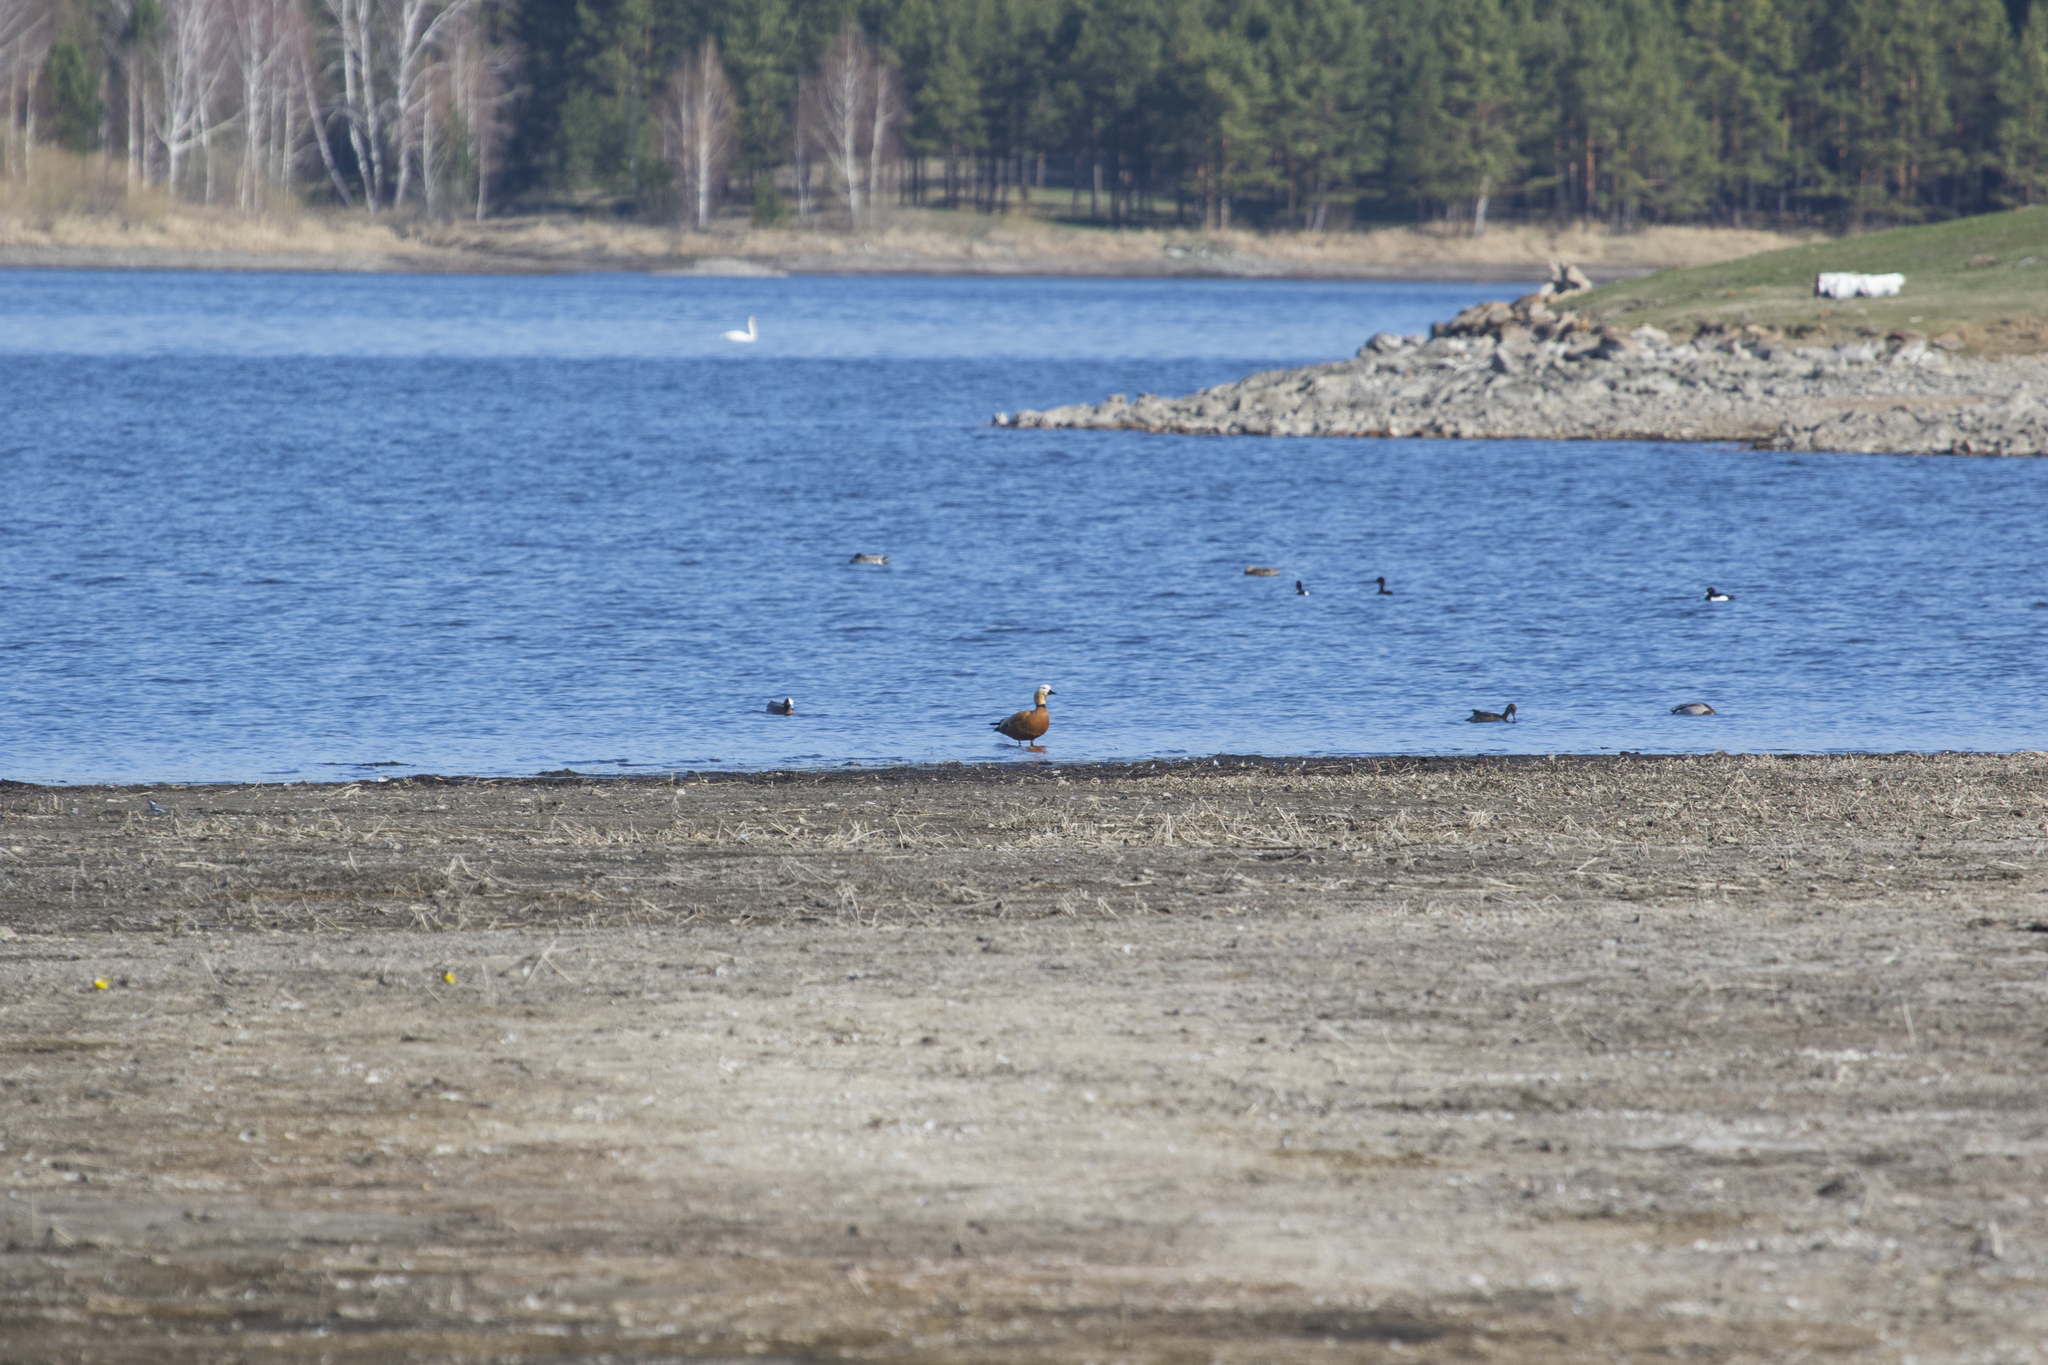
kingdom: Animalia
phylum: Chordata
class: Aves
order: Anseriformes
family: Anatidae
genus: Tadorna
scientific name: Tadorna ferruginea
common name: Ruddy shelduck
